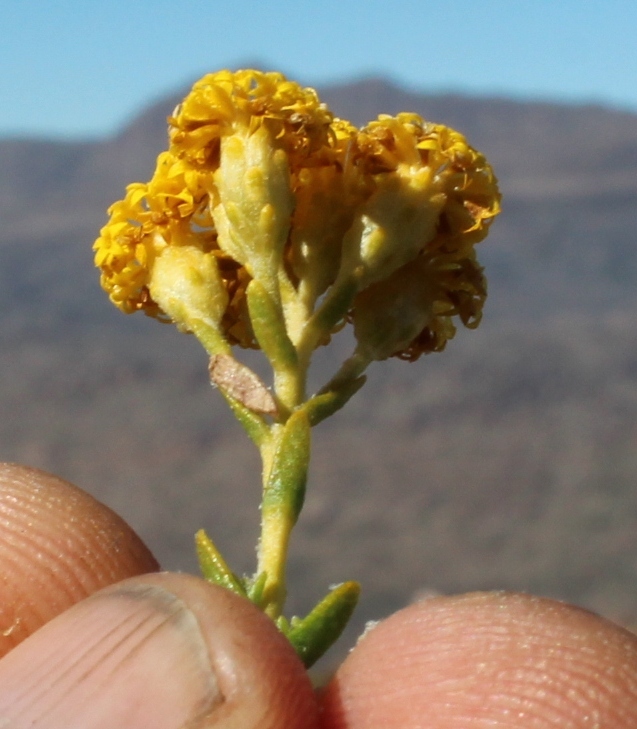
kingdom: Plantae
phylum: Tracheophyta
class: Magnoliopsida
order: Asterales
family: Asteraceae
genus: Athanasia
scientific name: Athanasia microphylla
